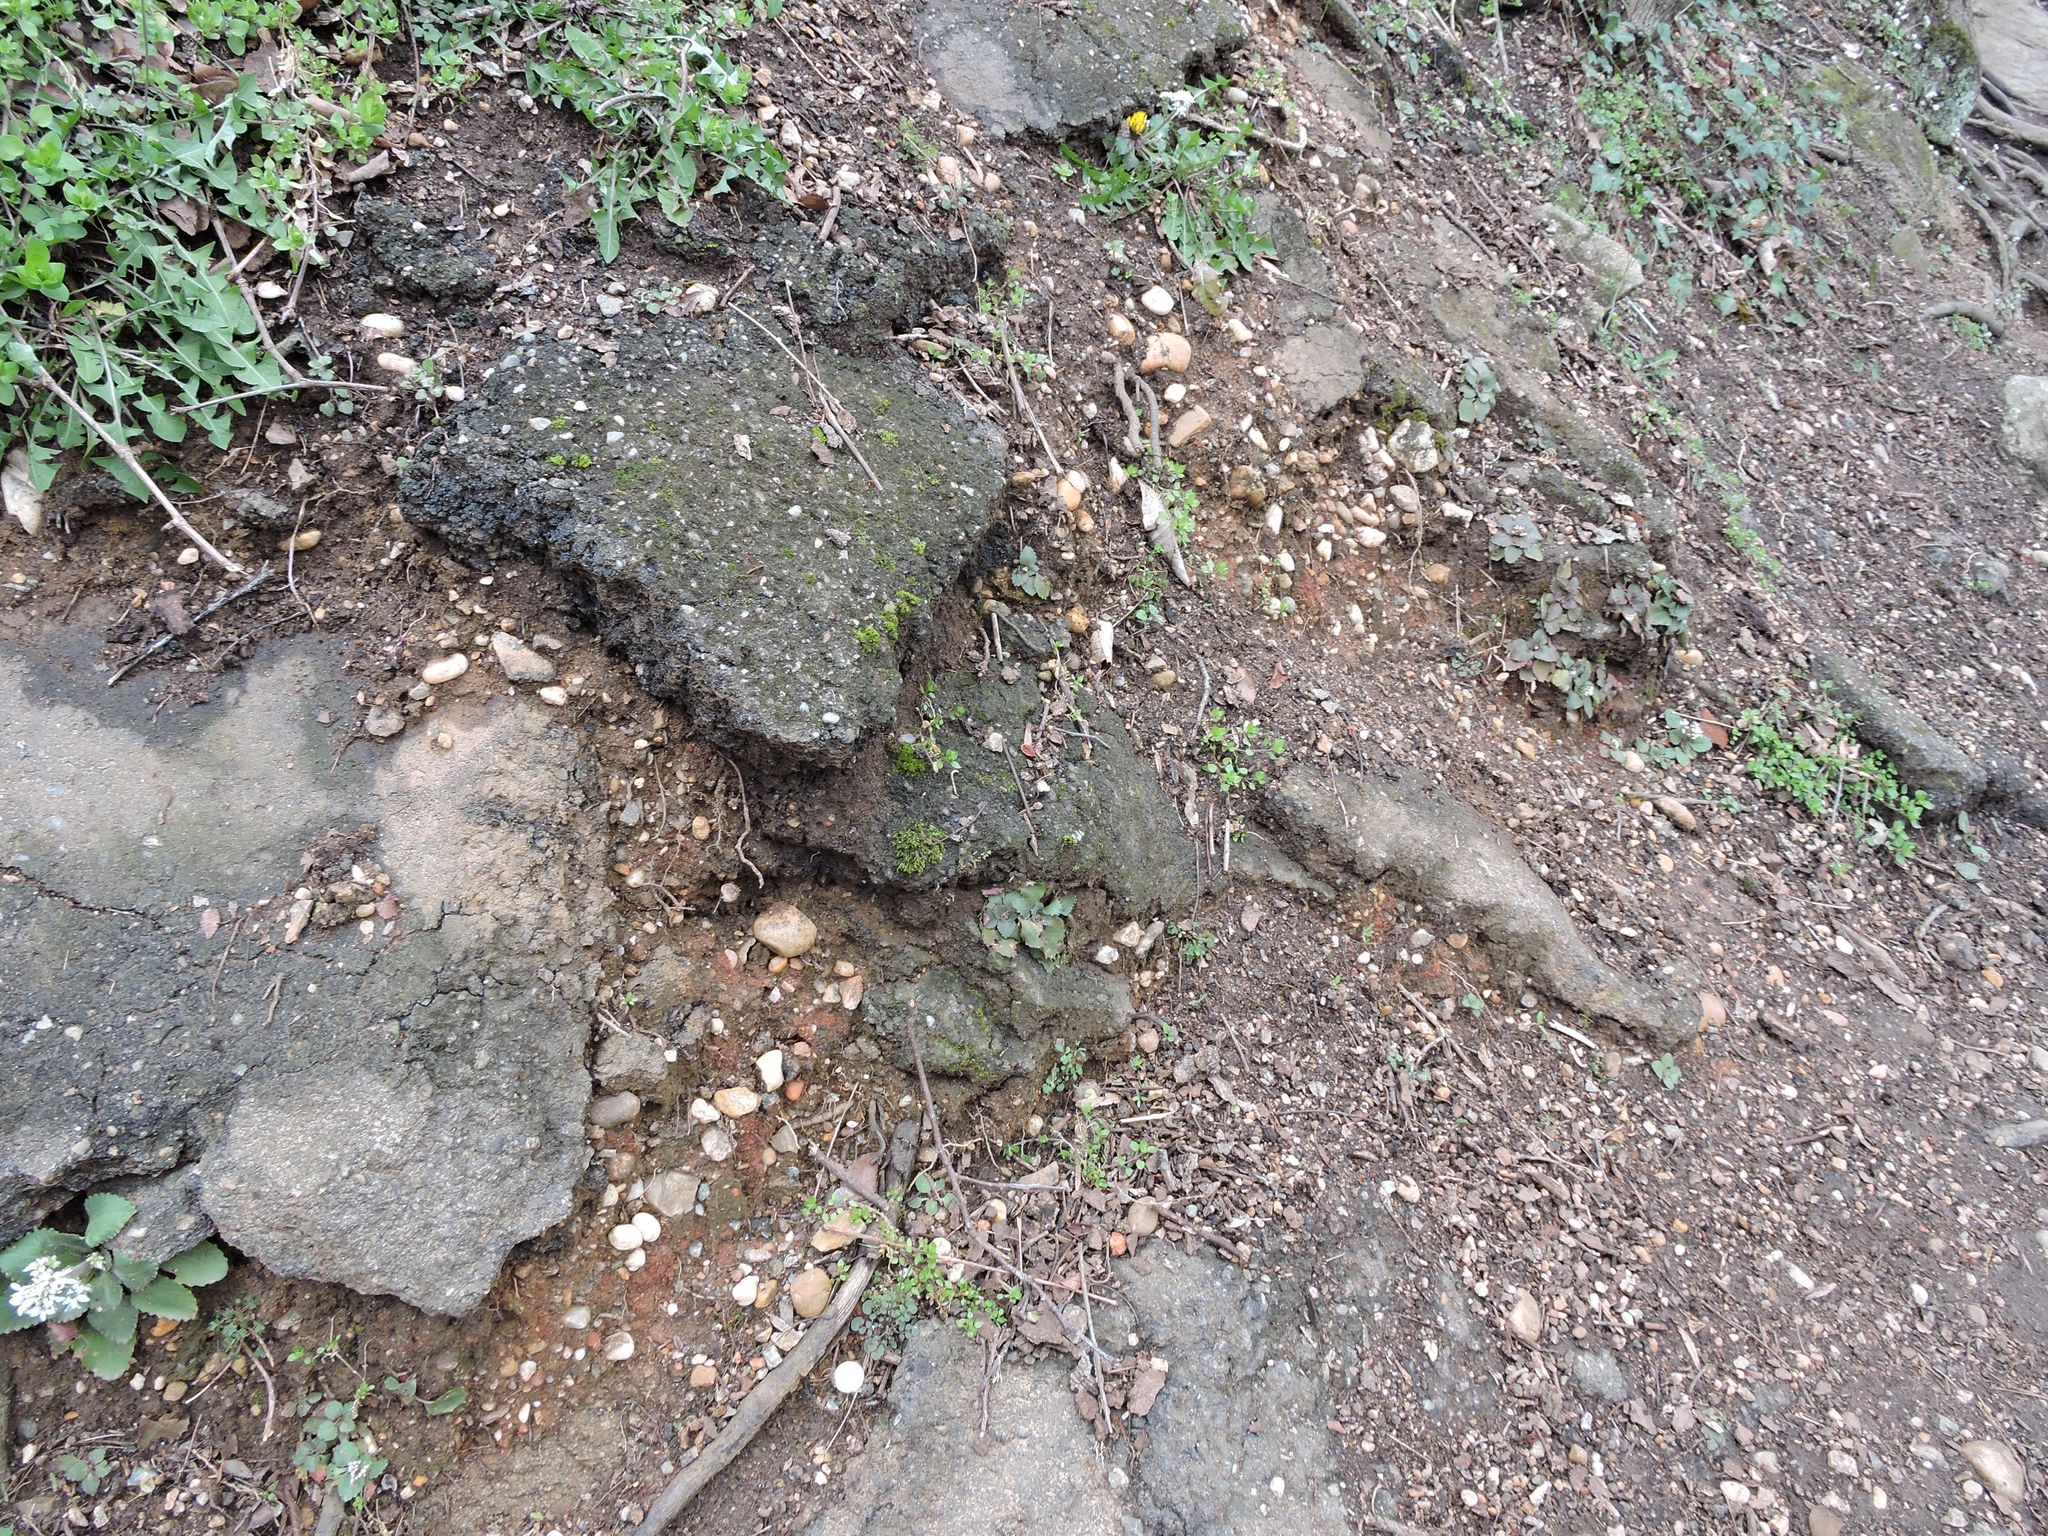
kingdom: Plantae
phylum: Tracheophyta
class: Magnoliopsida
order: Brassicales
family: Brassicaceae
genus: Cardamine
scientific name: Cardamine hirsuta
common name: Hairy bittercress
